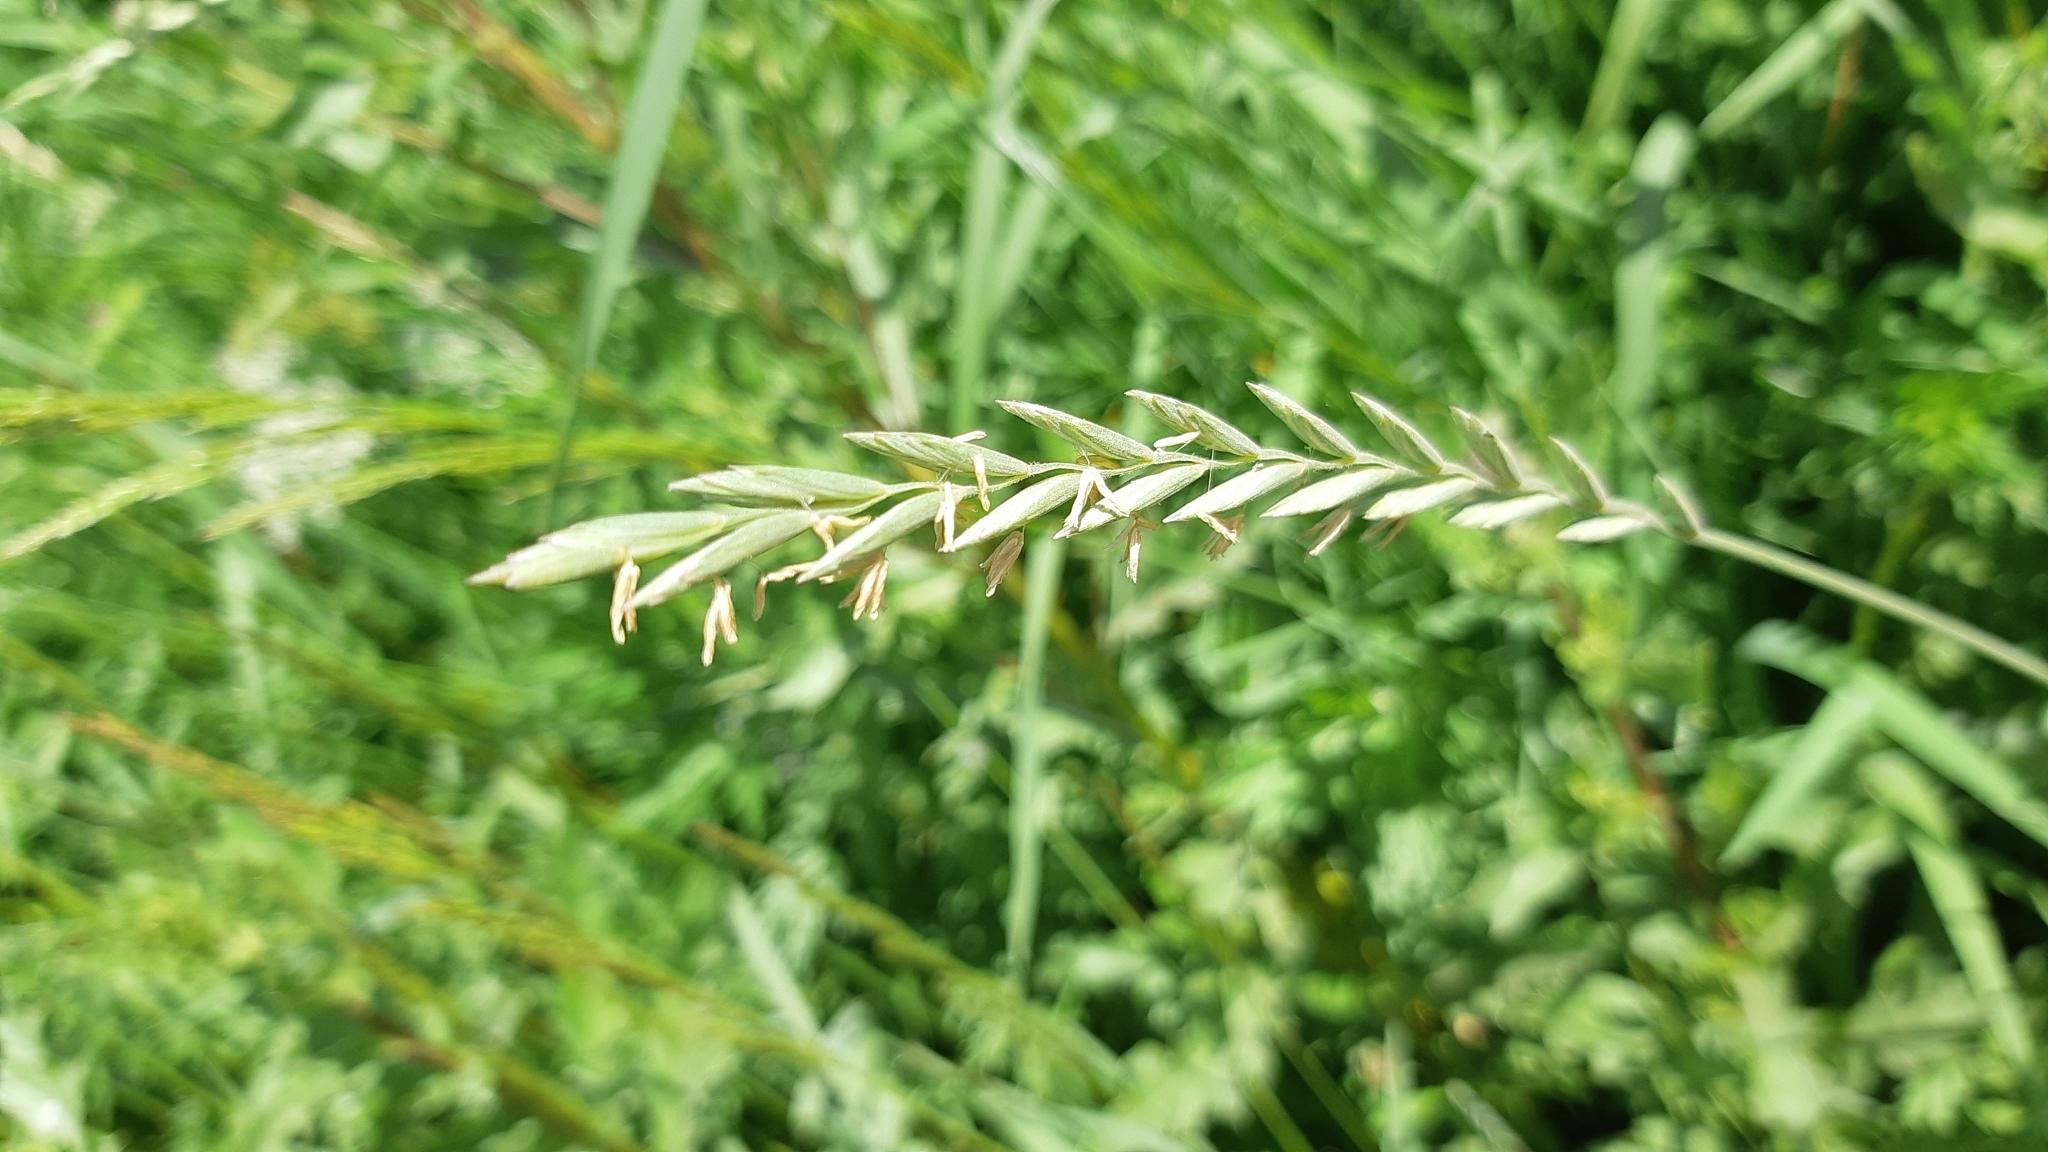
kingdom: Plantae
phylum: Tracheophyta
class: Liliopsida
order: Poales
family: Poaceae
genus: Elymus
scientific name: Elymus repens
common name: Quackgrass
